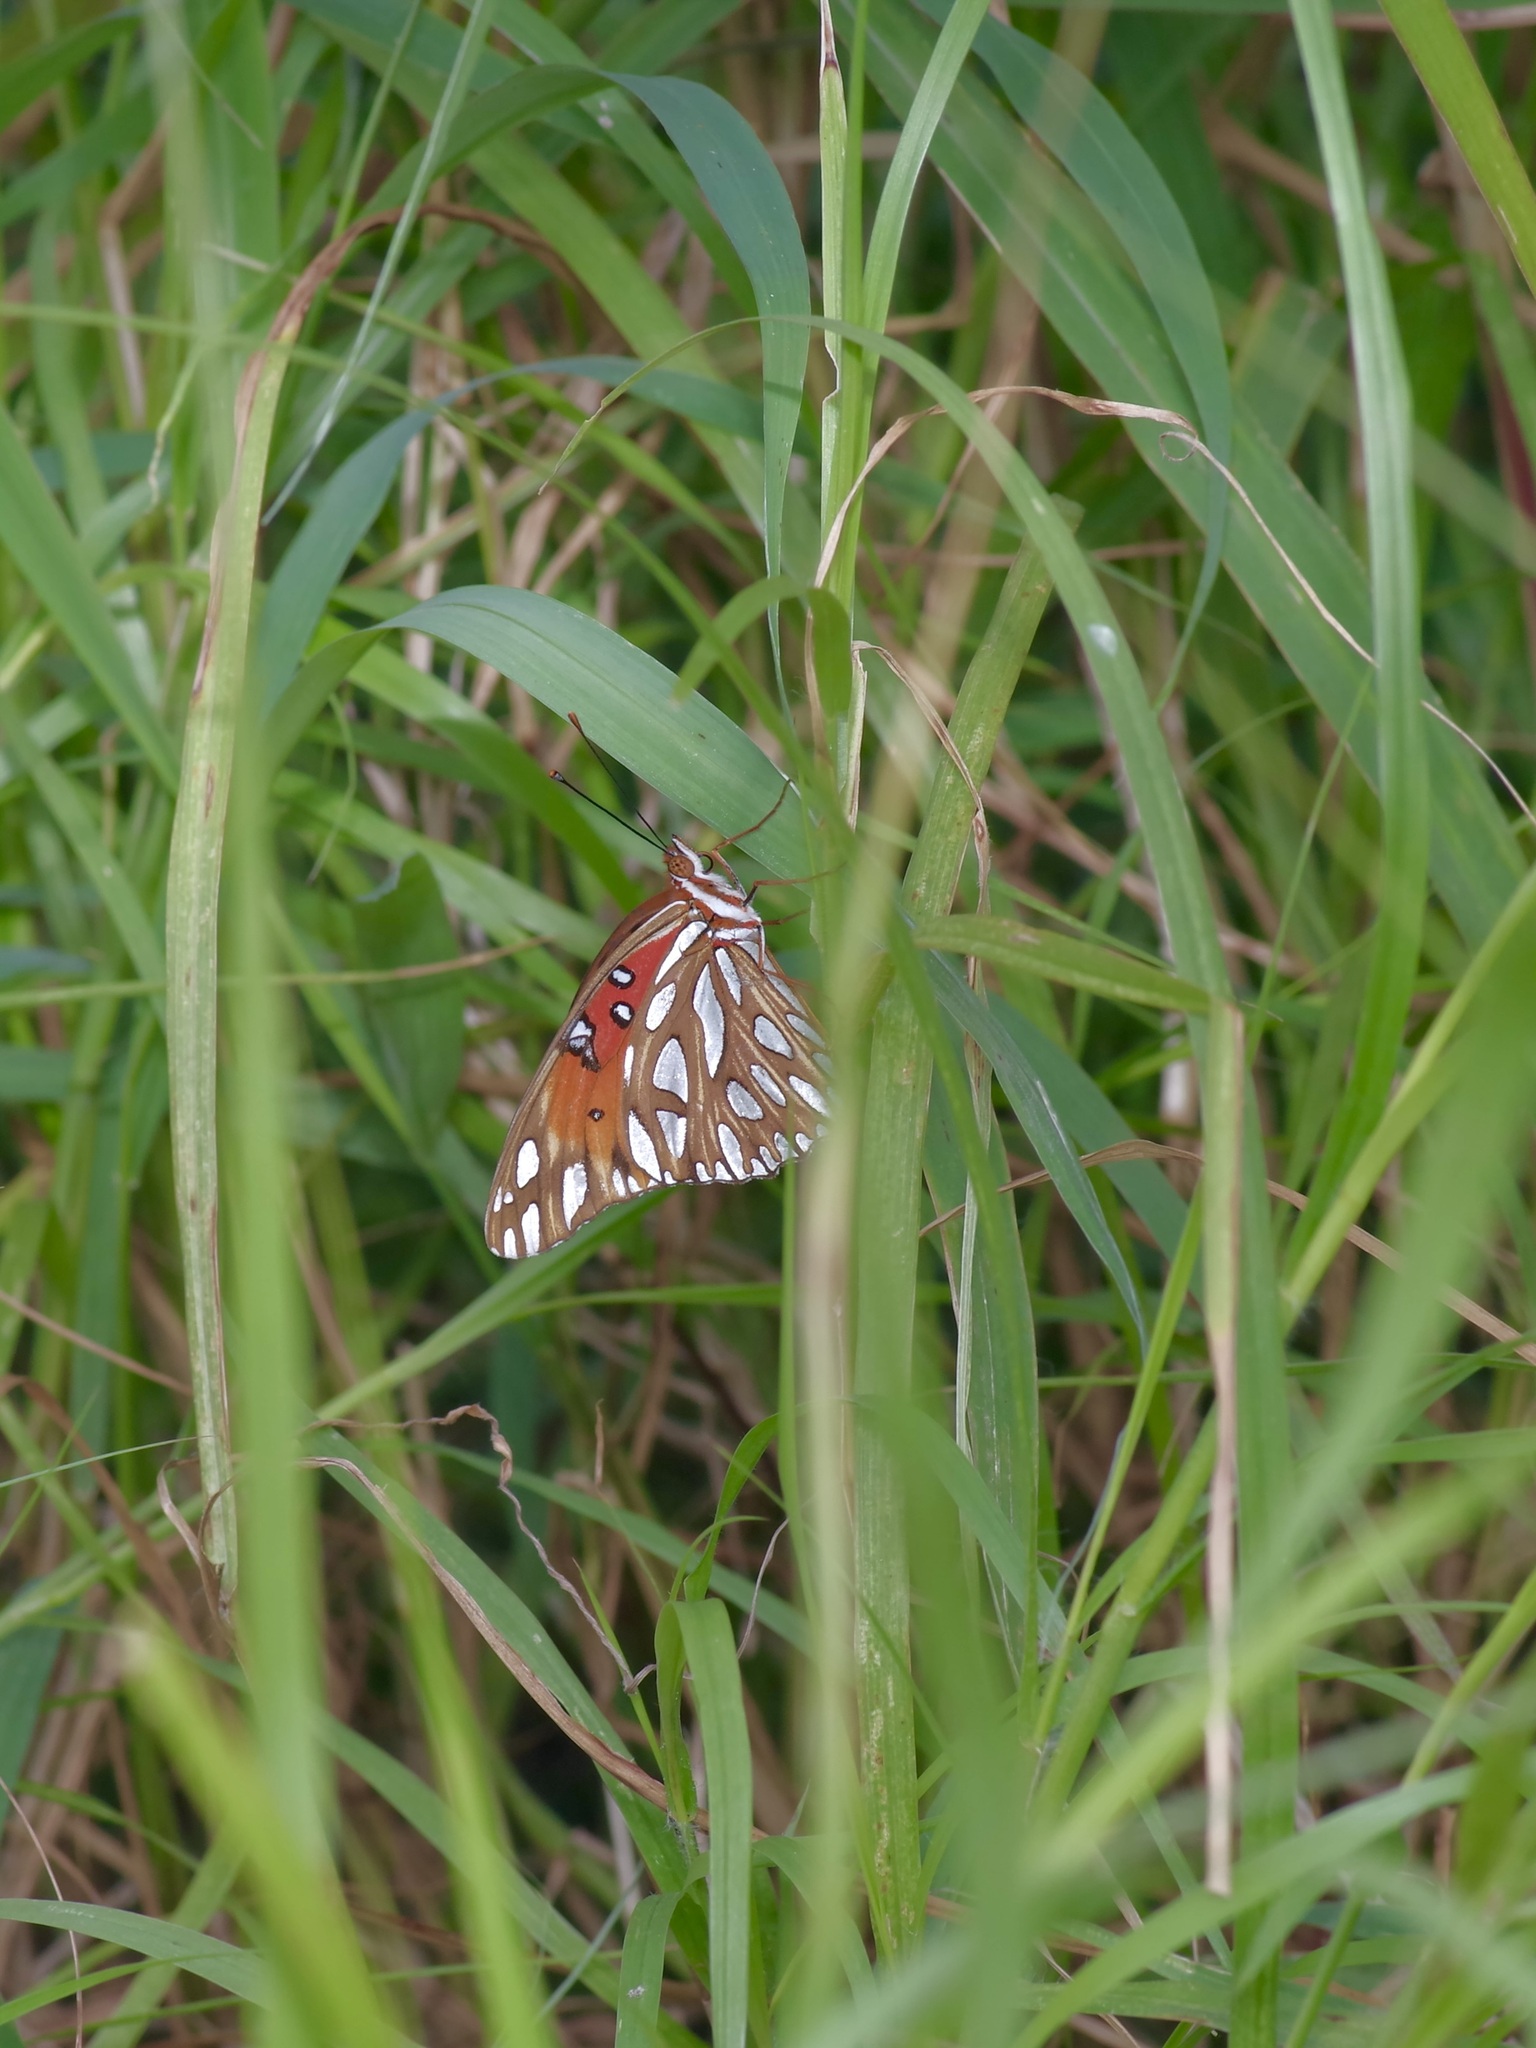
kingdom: Animalia
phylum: Arthropoda
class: Insecta
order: Lepidoptera
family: Nymphalidae
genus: Dione
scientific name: Dione vanillae
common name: Gulf fritillary
